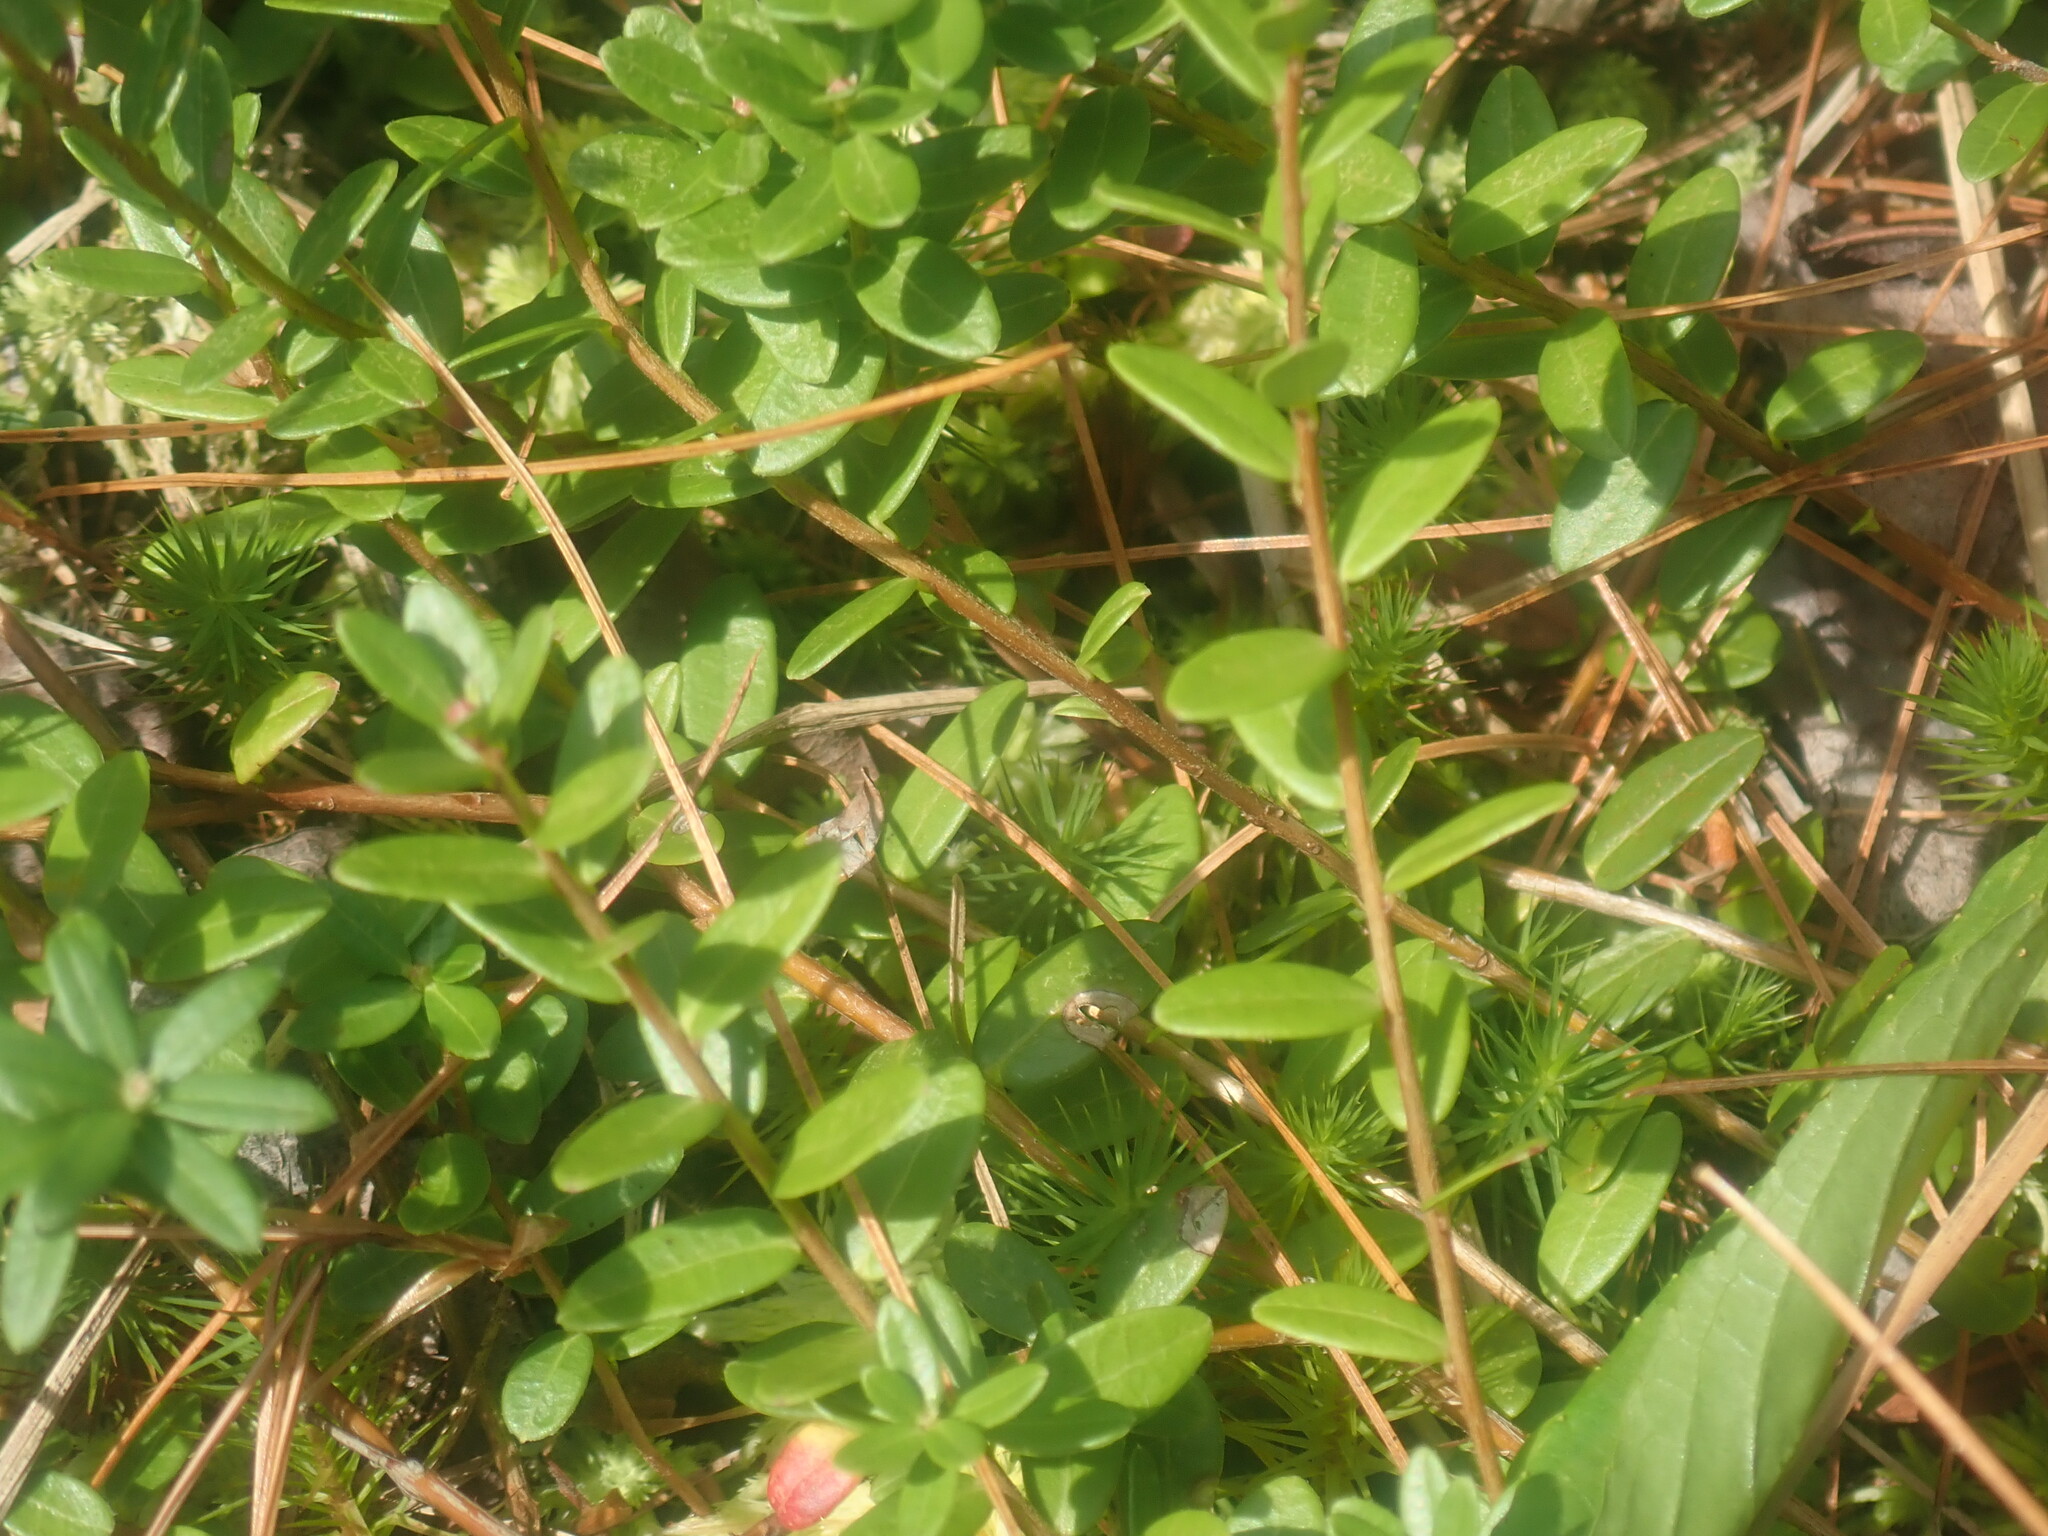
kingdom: Plantae
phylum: Tracheophyta
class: Magnoliopsida
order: Ericales
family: Ericaceae
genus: Vaccinium
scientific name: Vaccinium macrocarpon
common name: American cranberry
